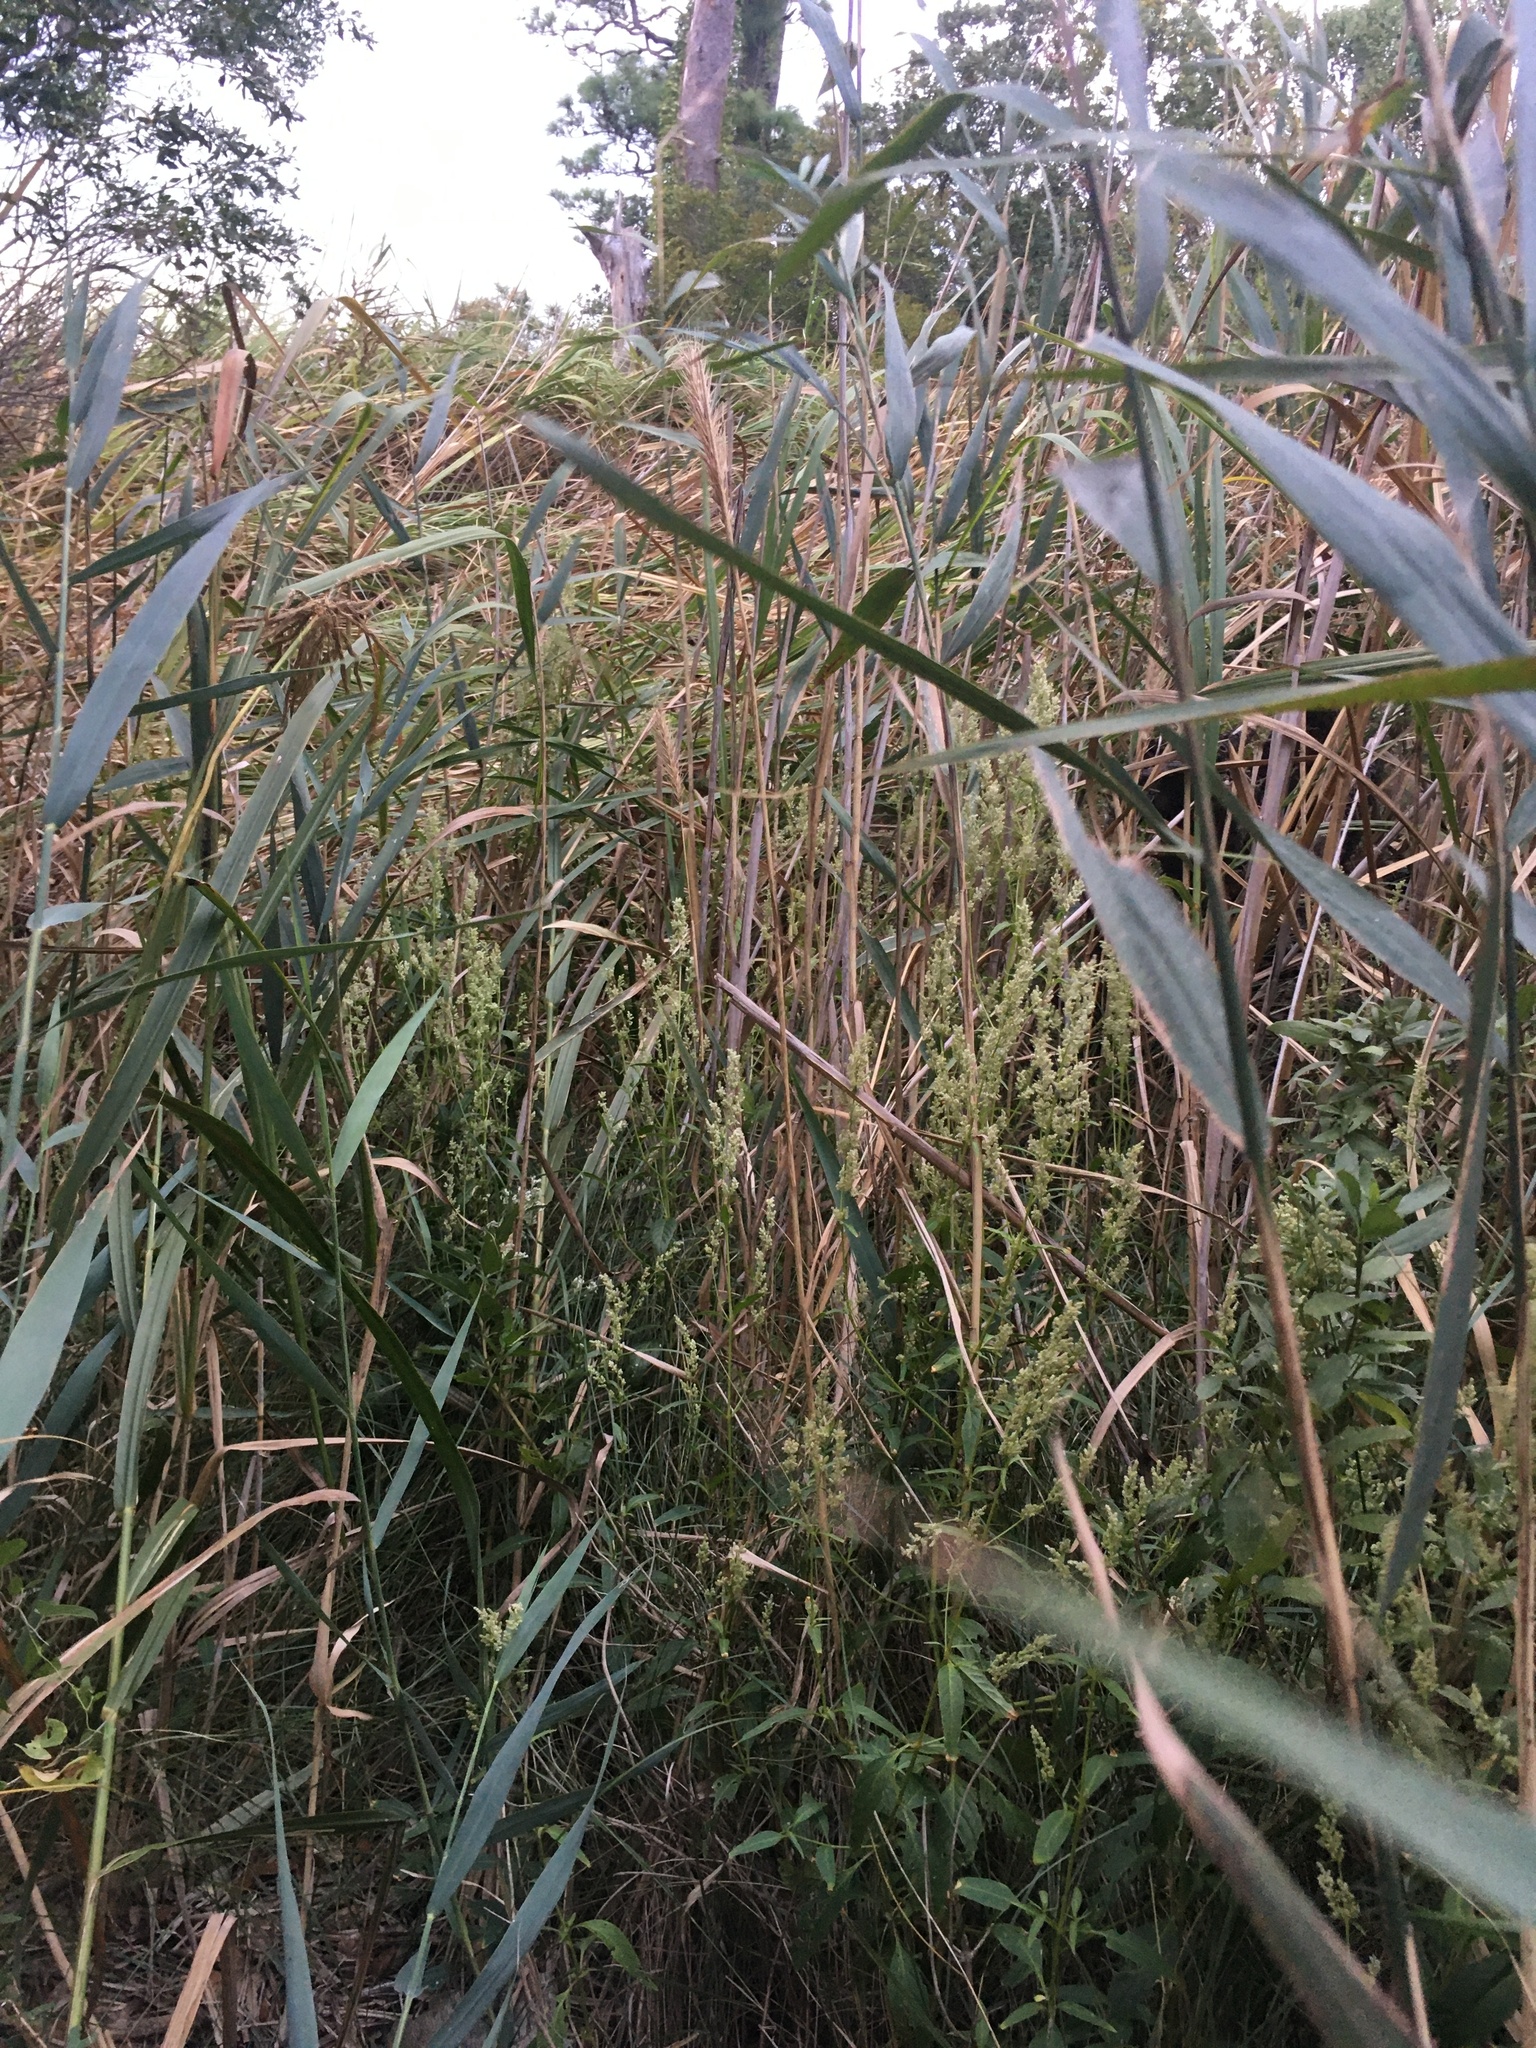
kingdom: Plantae
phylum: Tracheophyta
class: Magnoliopsida
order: Caryophyllales
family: Amaranthaceae
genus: Iresine
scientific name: Iresine rhizomatosa
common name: Juda's-bush
